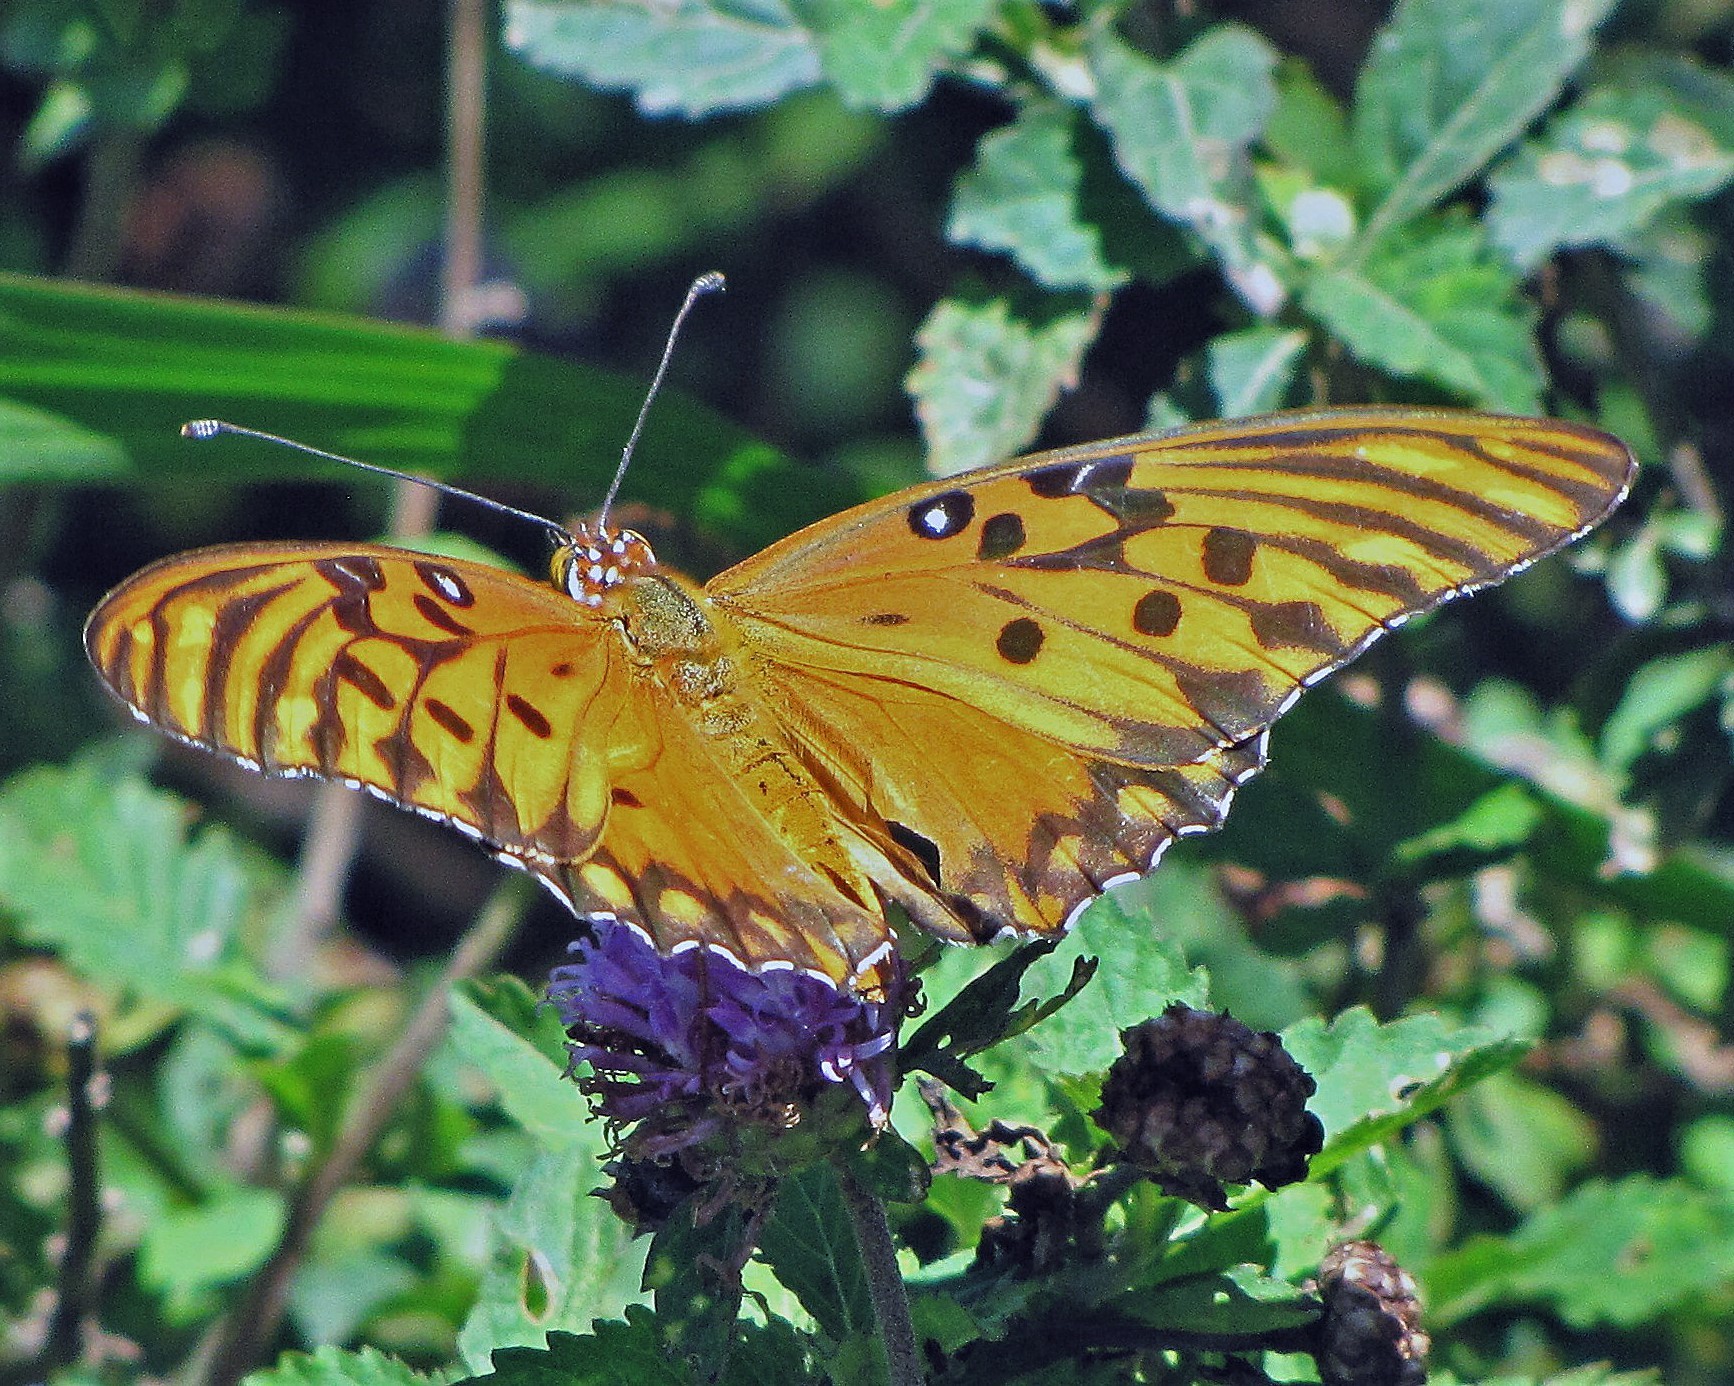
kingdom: Animalia
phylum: Arthropoda
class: Insecta
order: Lepidoptera
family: Nymphalidae
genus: Dione
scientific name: Dione vanillae
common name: Gulf fritillary
